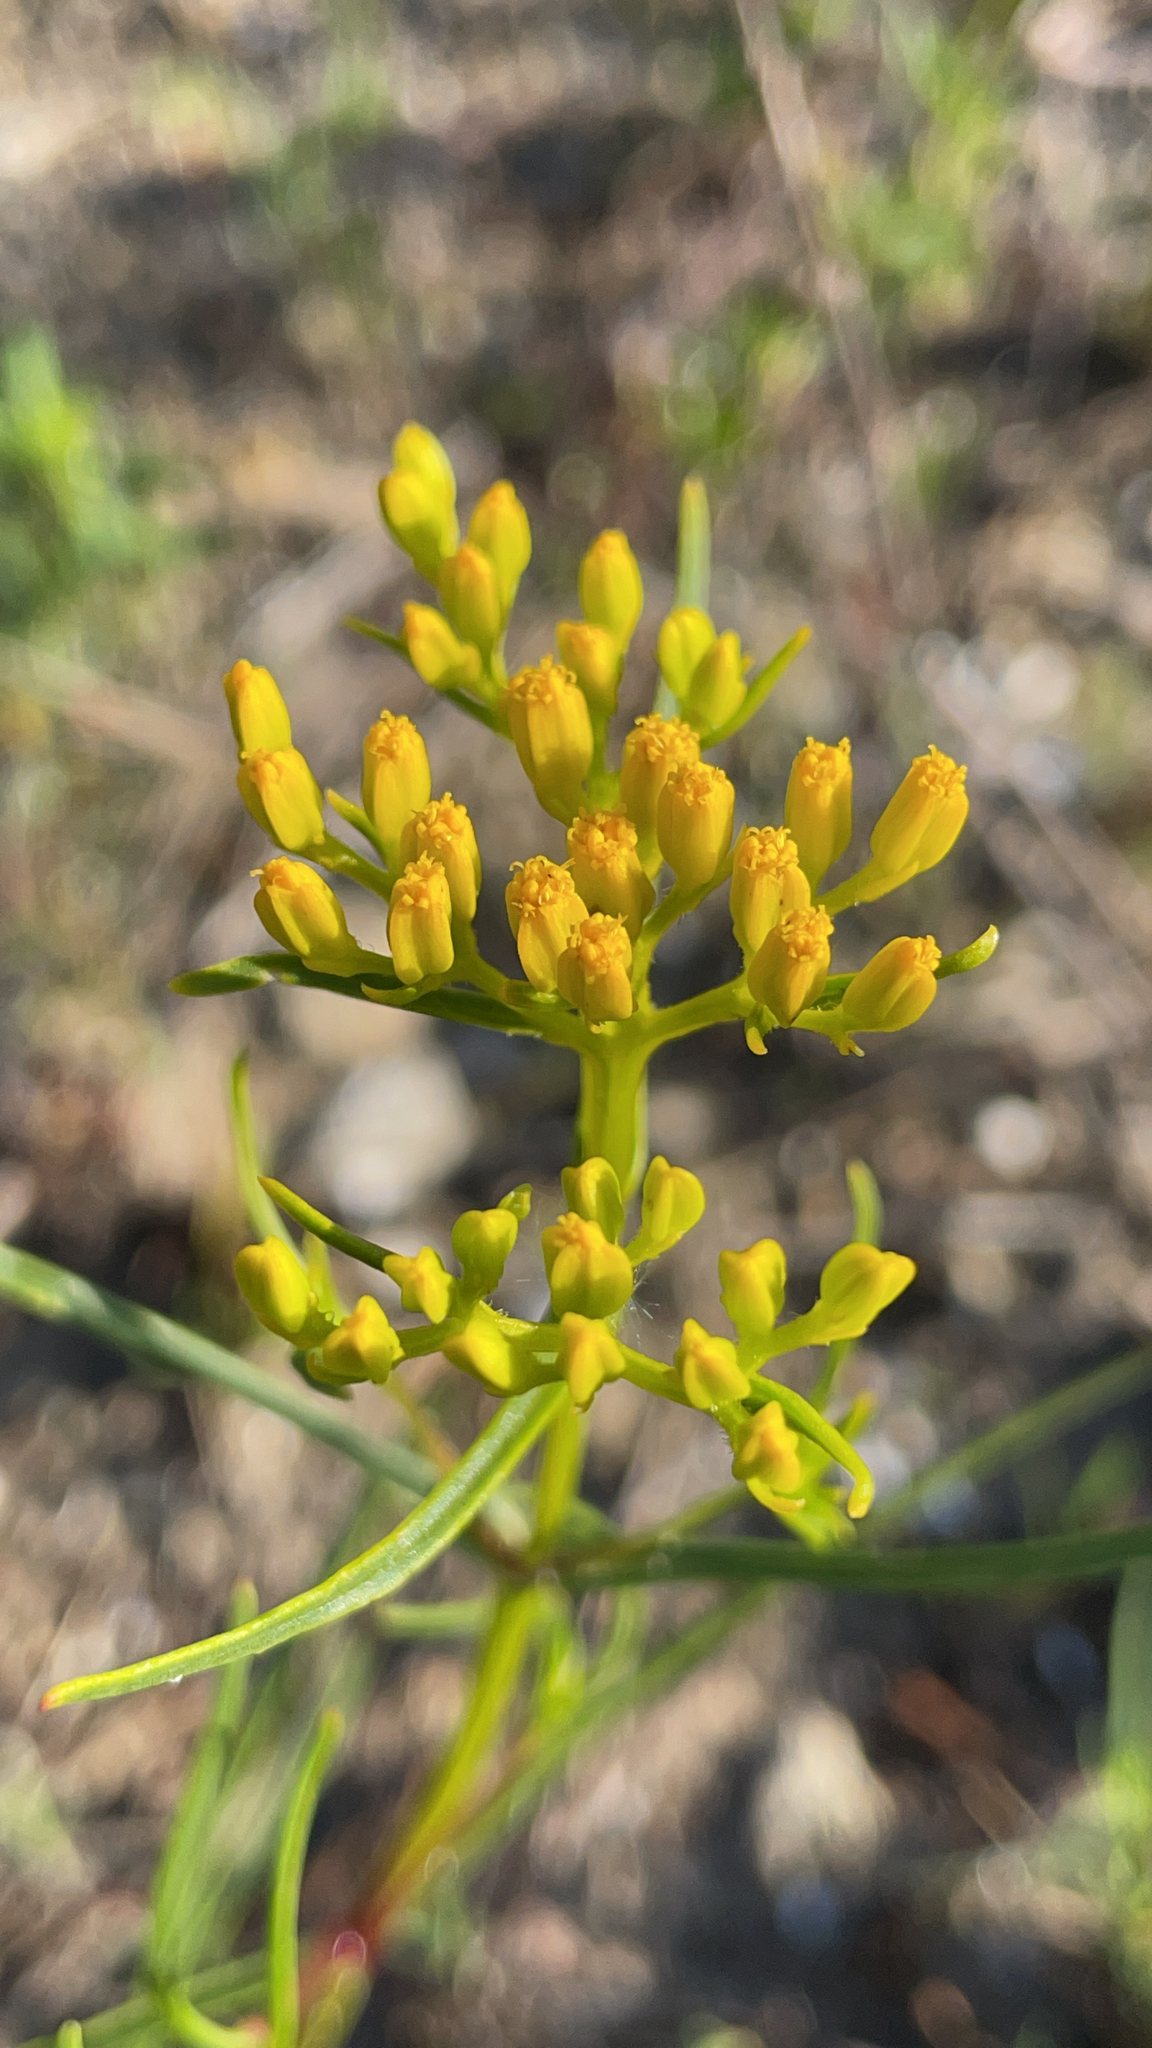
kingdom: Plantae
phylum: Tracheophyta
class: Magnoliopsida
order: Asterales
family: Asteraceae
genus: Flaveria
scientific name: Flaveria linearis
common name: Yellowtop
